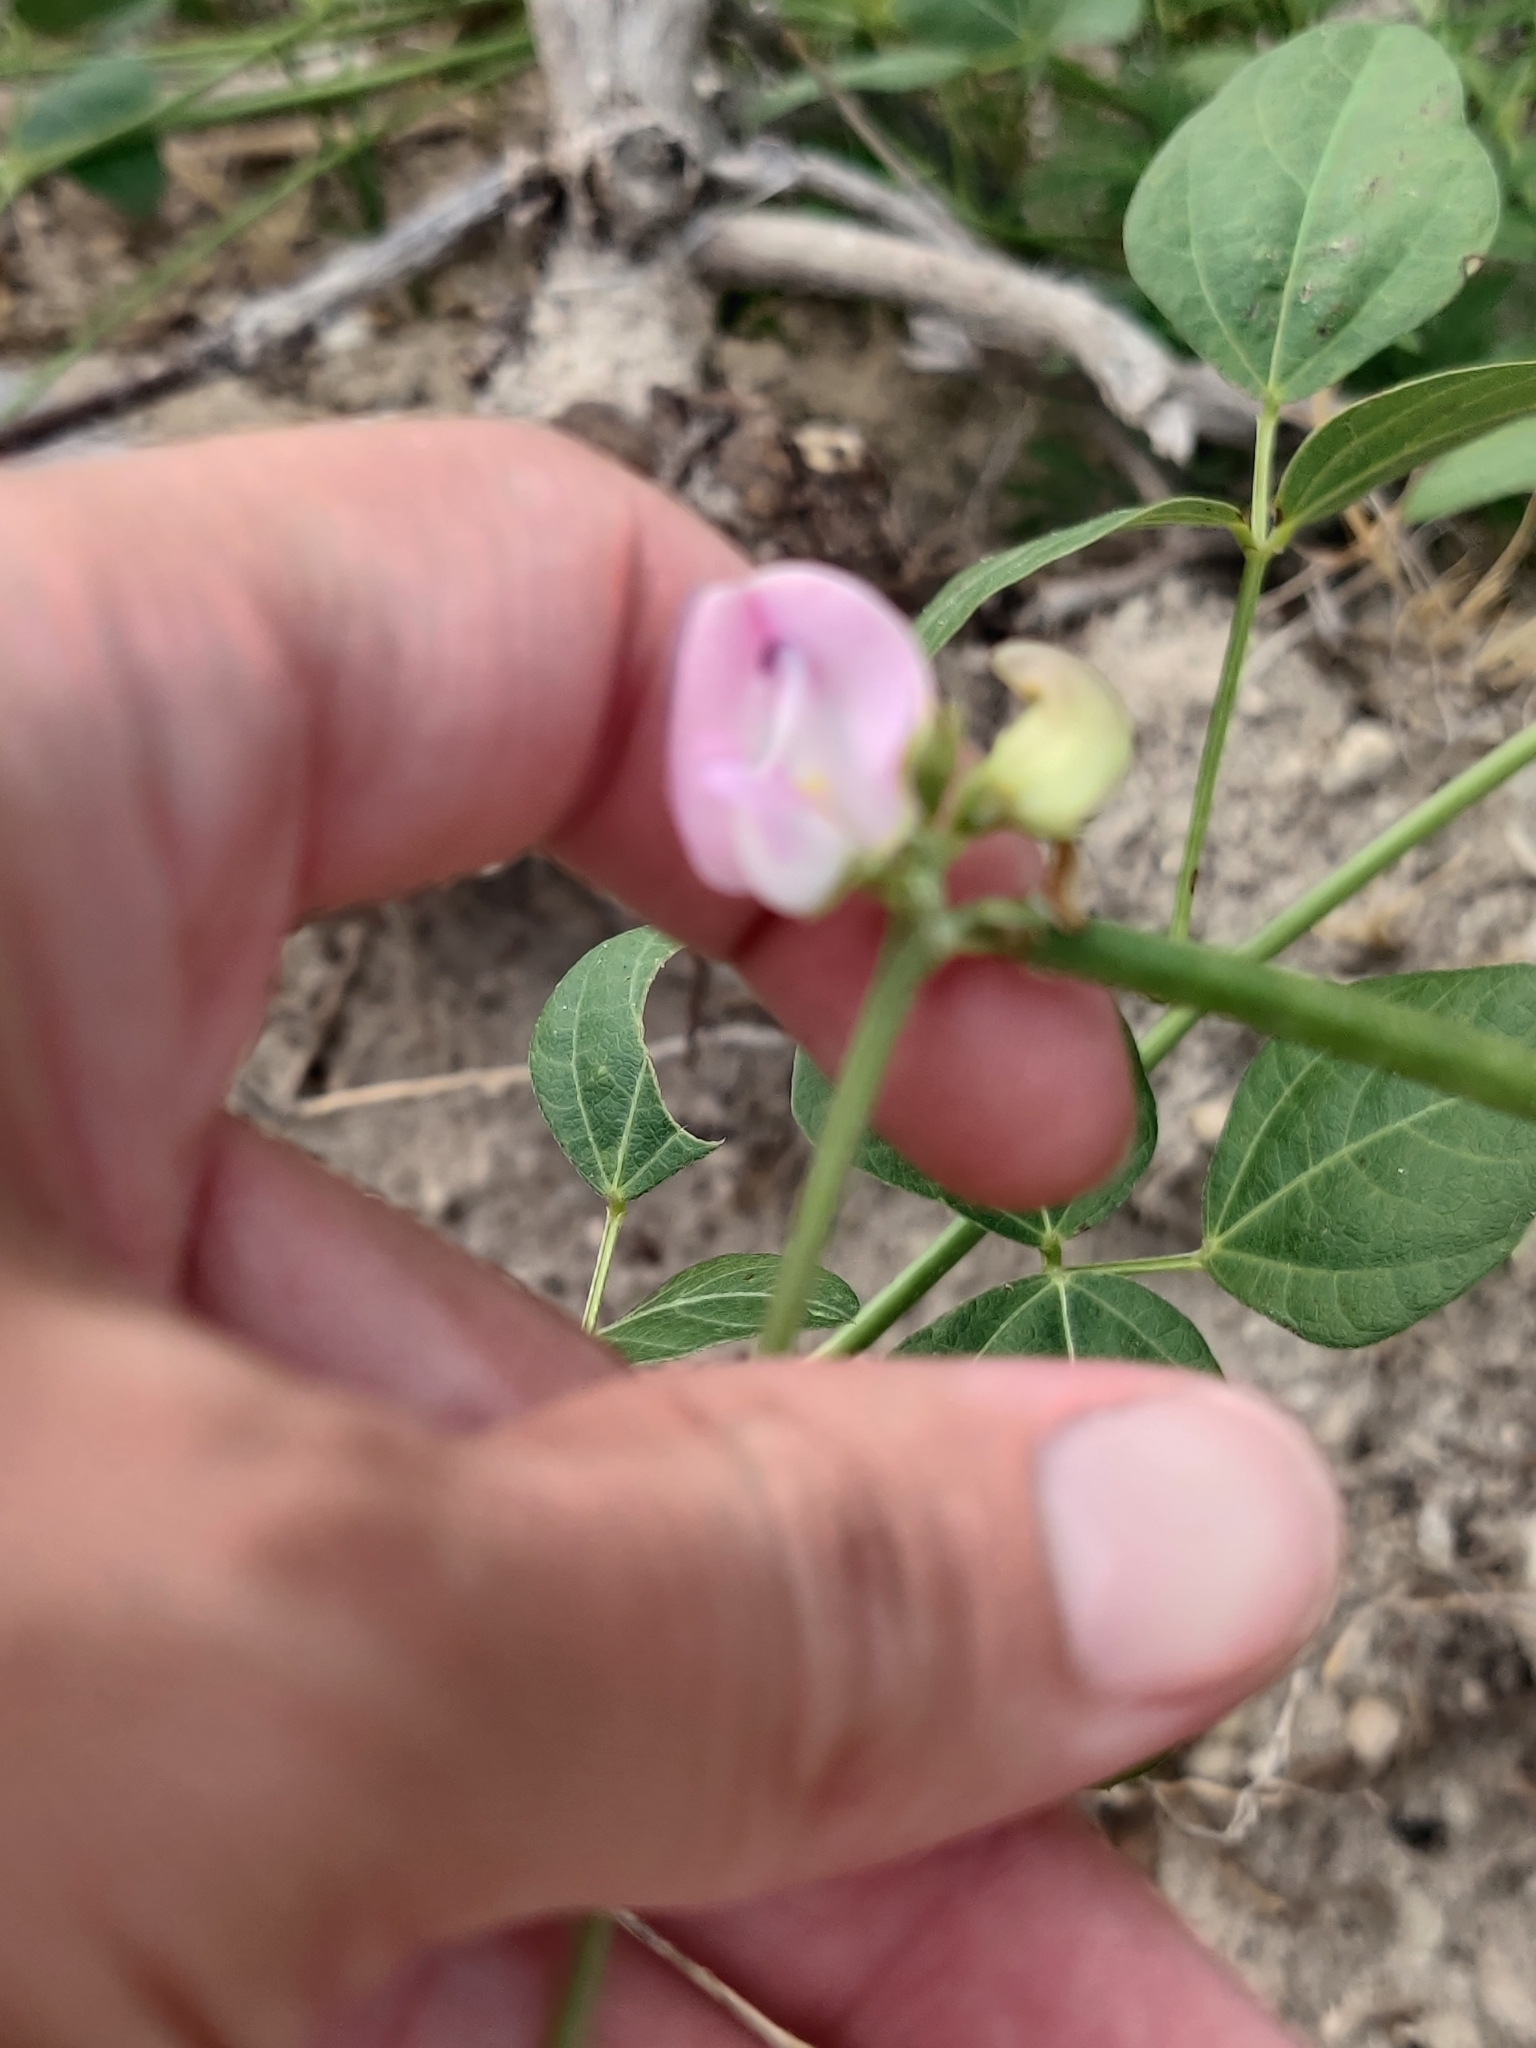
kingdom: Plantae
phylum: Tracheophyta
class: Magnoliopsida
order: Fabales
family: Fabaceae
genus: Strophostyles
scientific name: Strophostyles helvola
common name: Trailing wild bean
